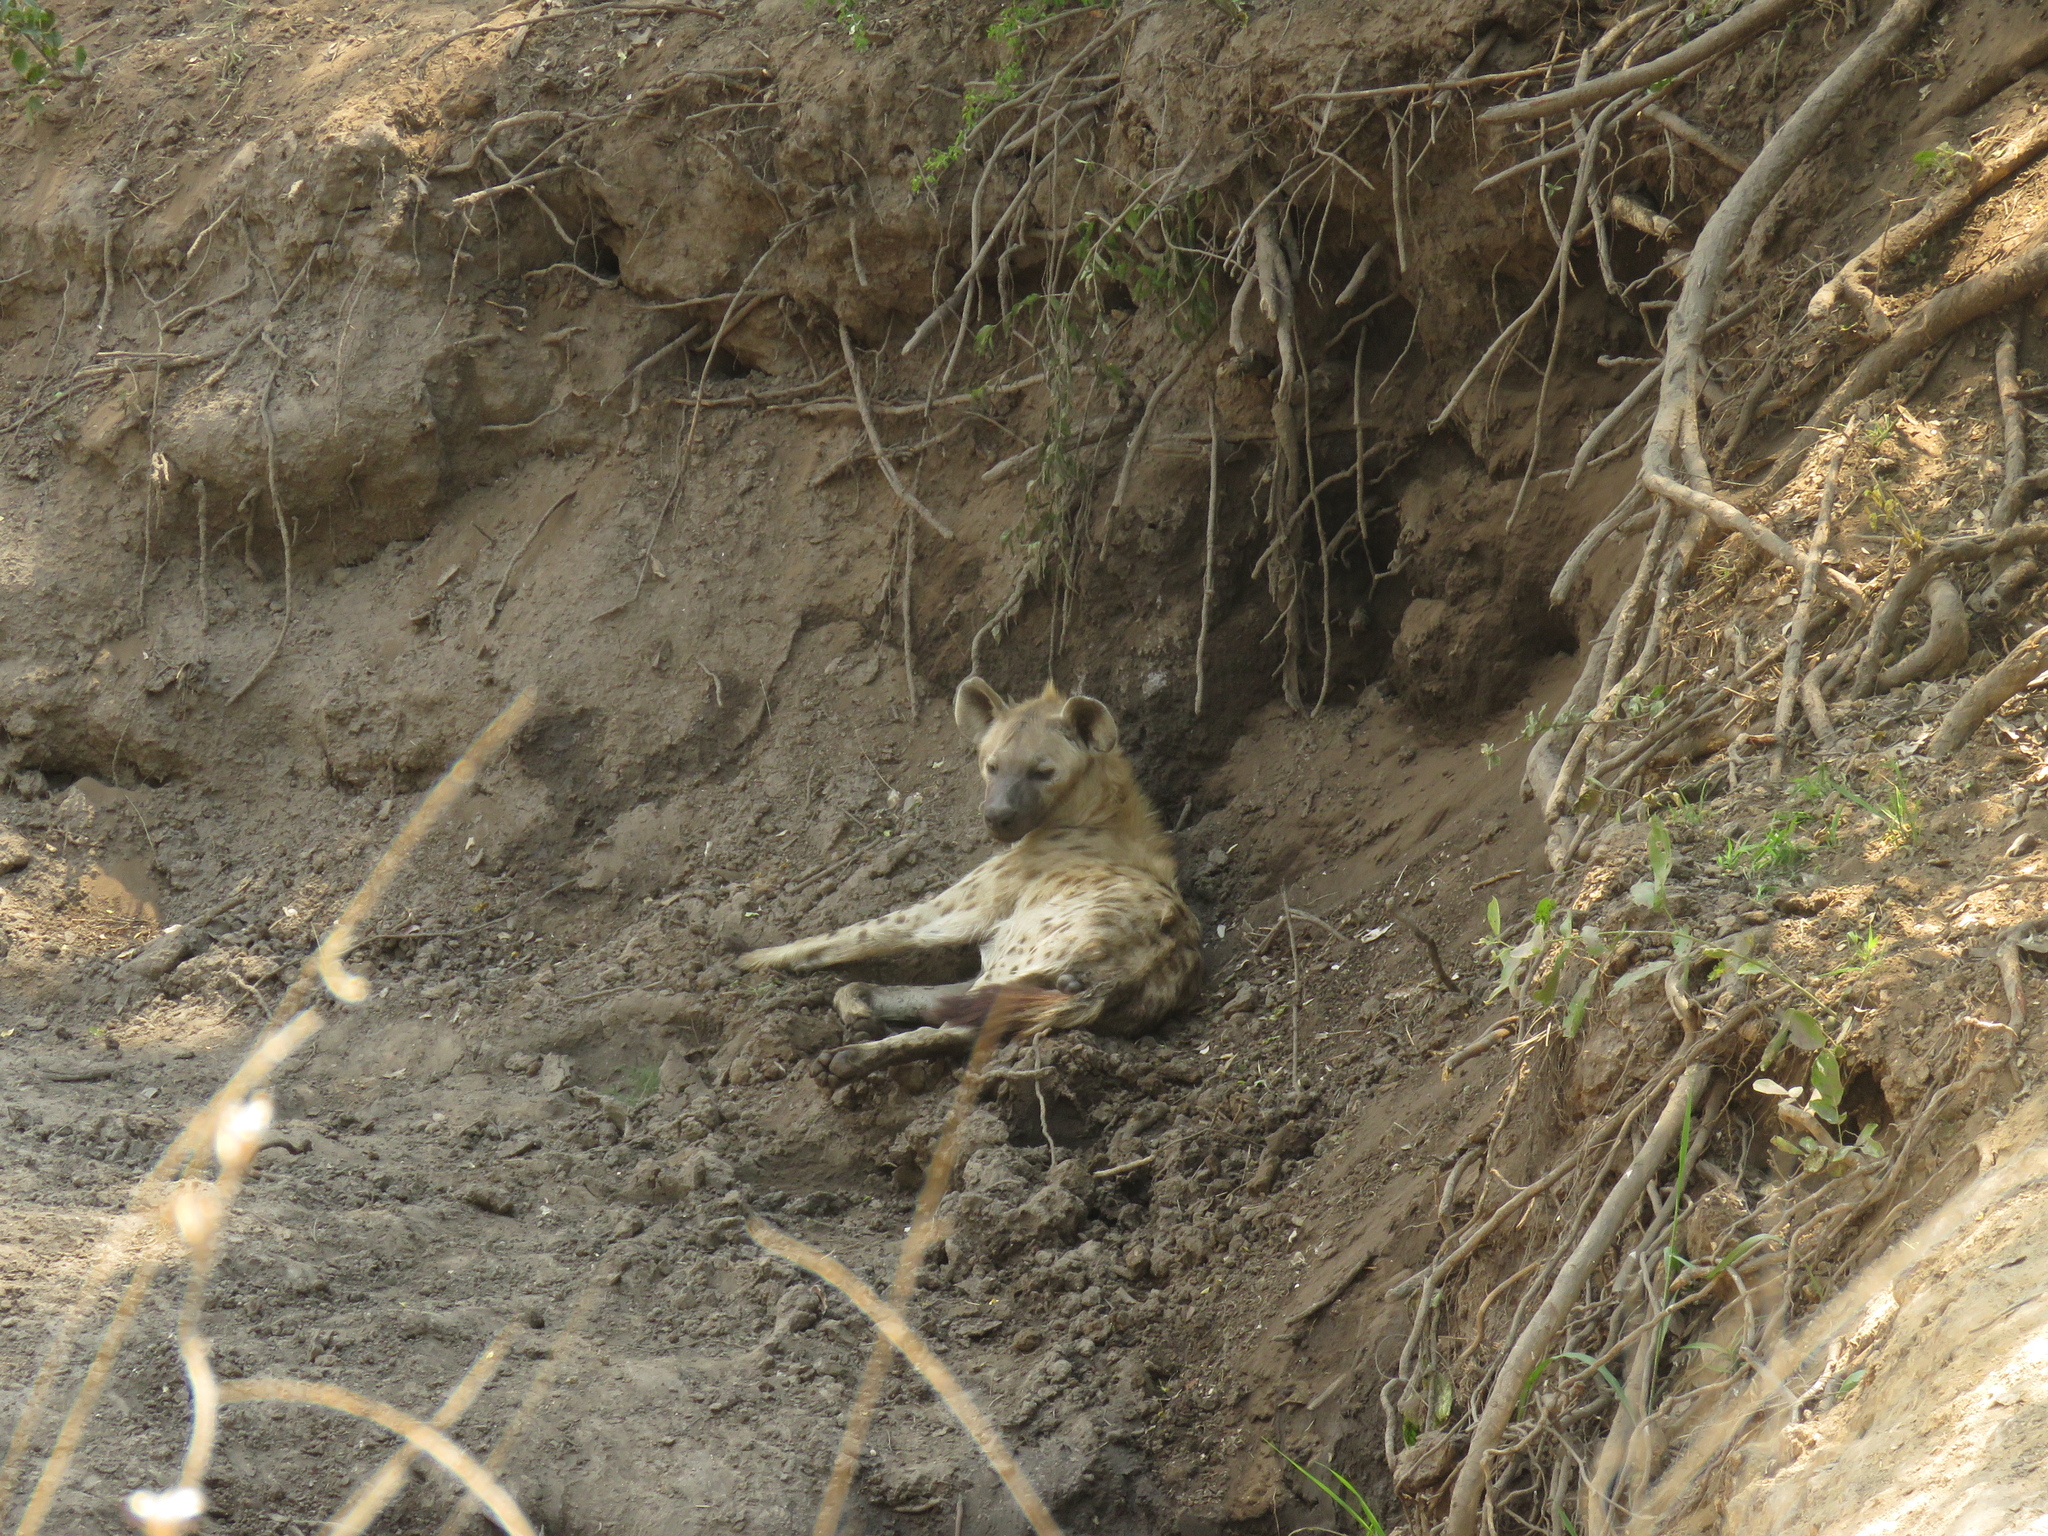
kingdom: Animalia
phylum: Chordata
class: Mammalia
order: Carnivora
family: Hyaenidae
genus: Crocuta
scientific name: Crocuta crocuta
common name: Spotted hyaena
